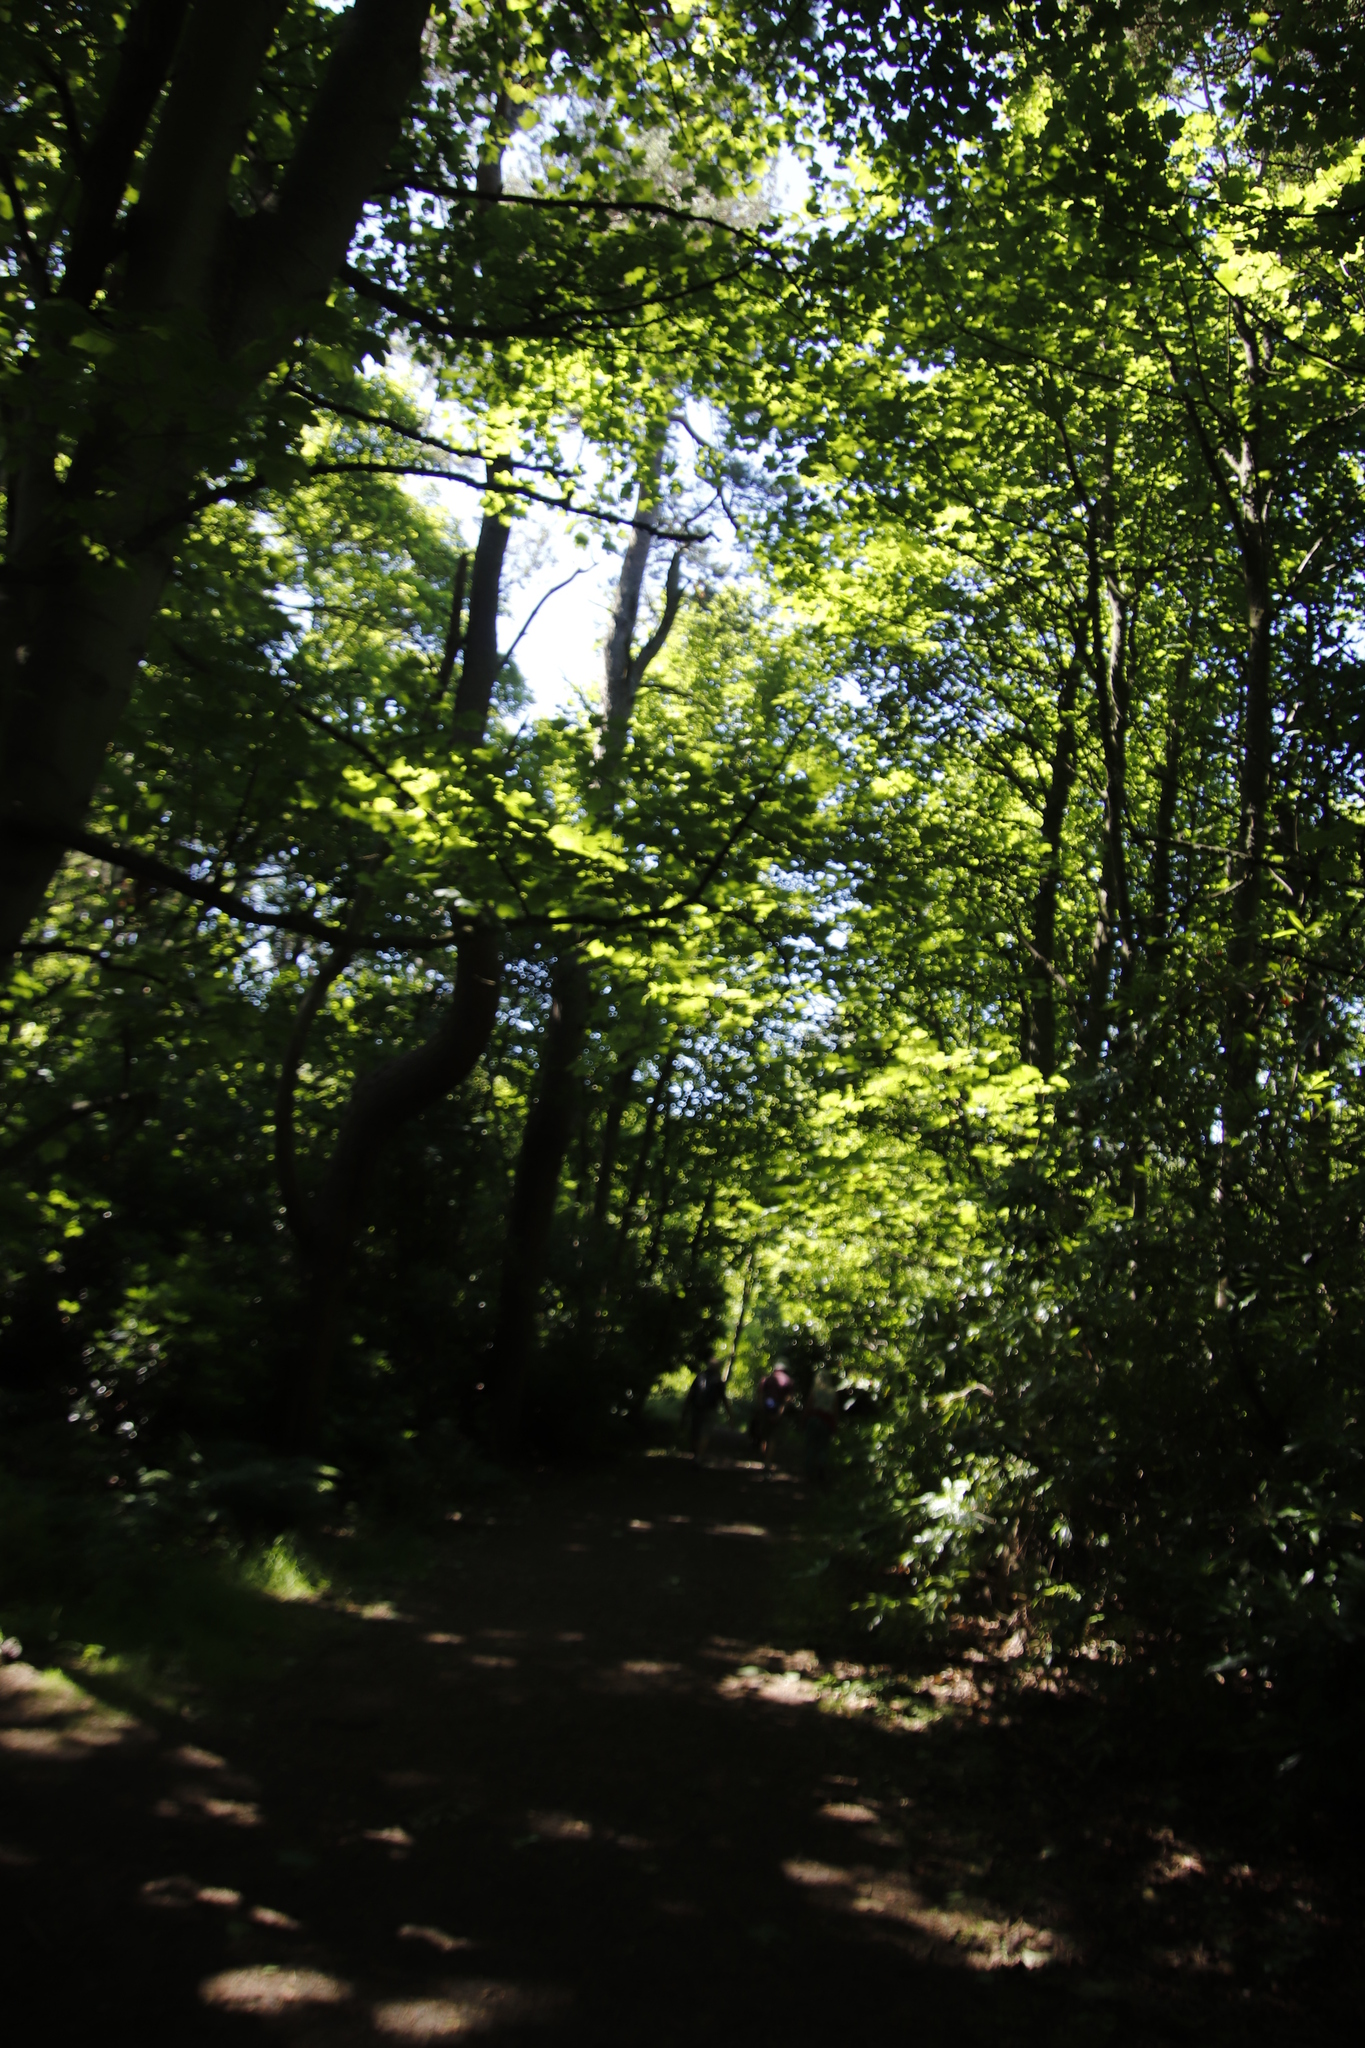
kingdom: Plantae
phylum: Tracheophyta
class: Magnoliopsida
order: Sapindales
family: Sapindaceae
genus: Acer
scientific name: Acer pseudoplatanus
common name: Sycamore
